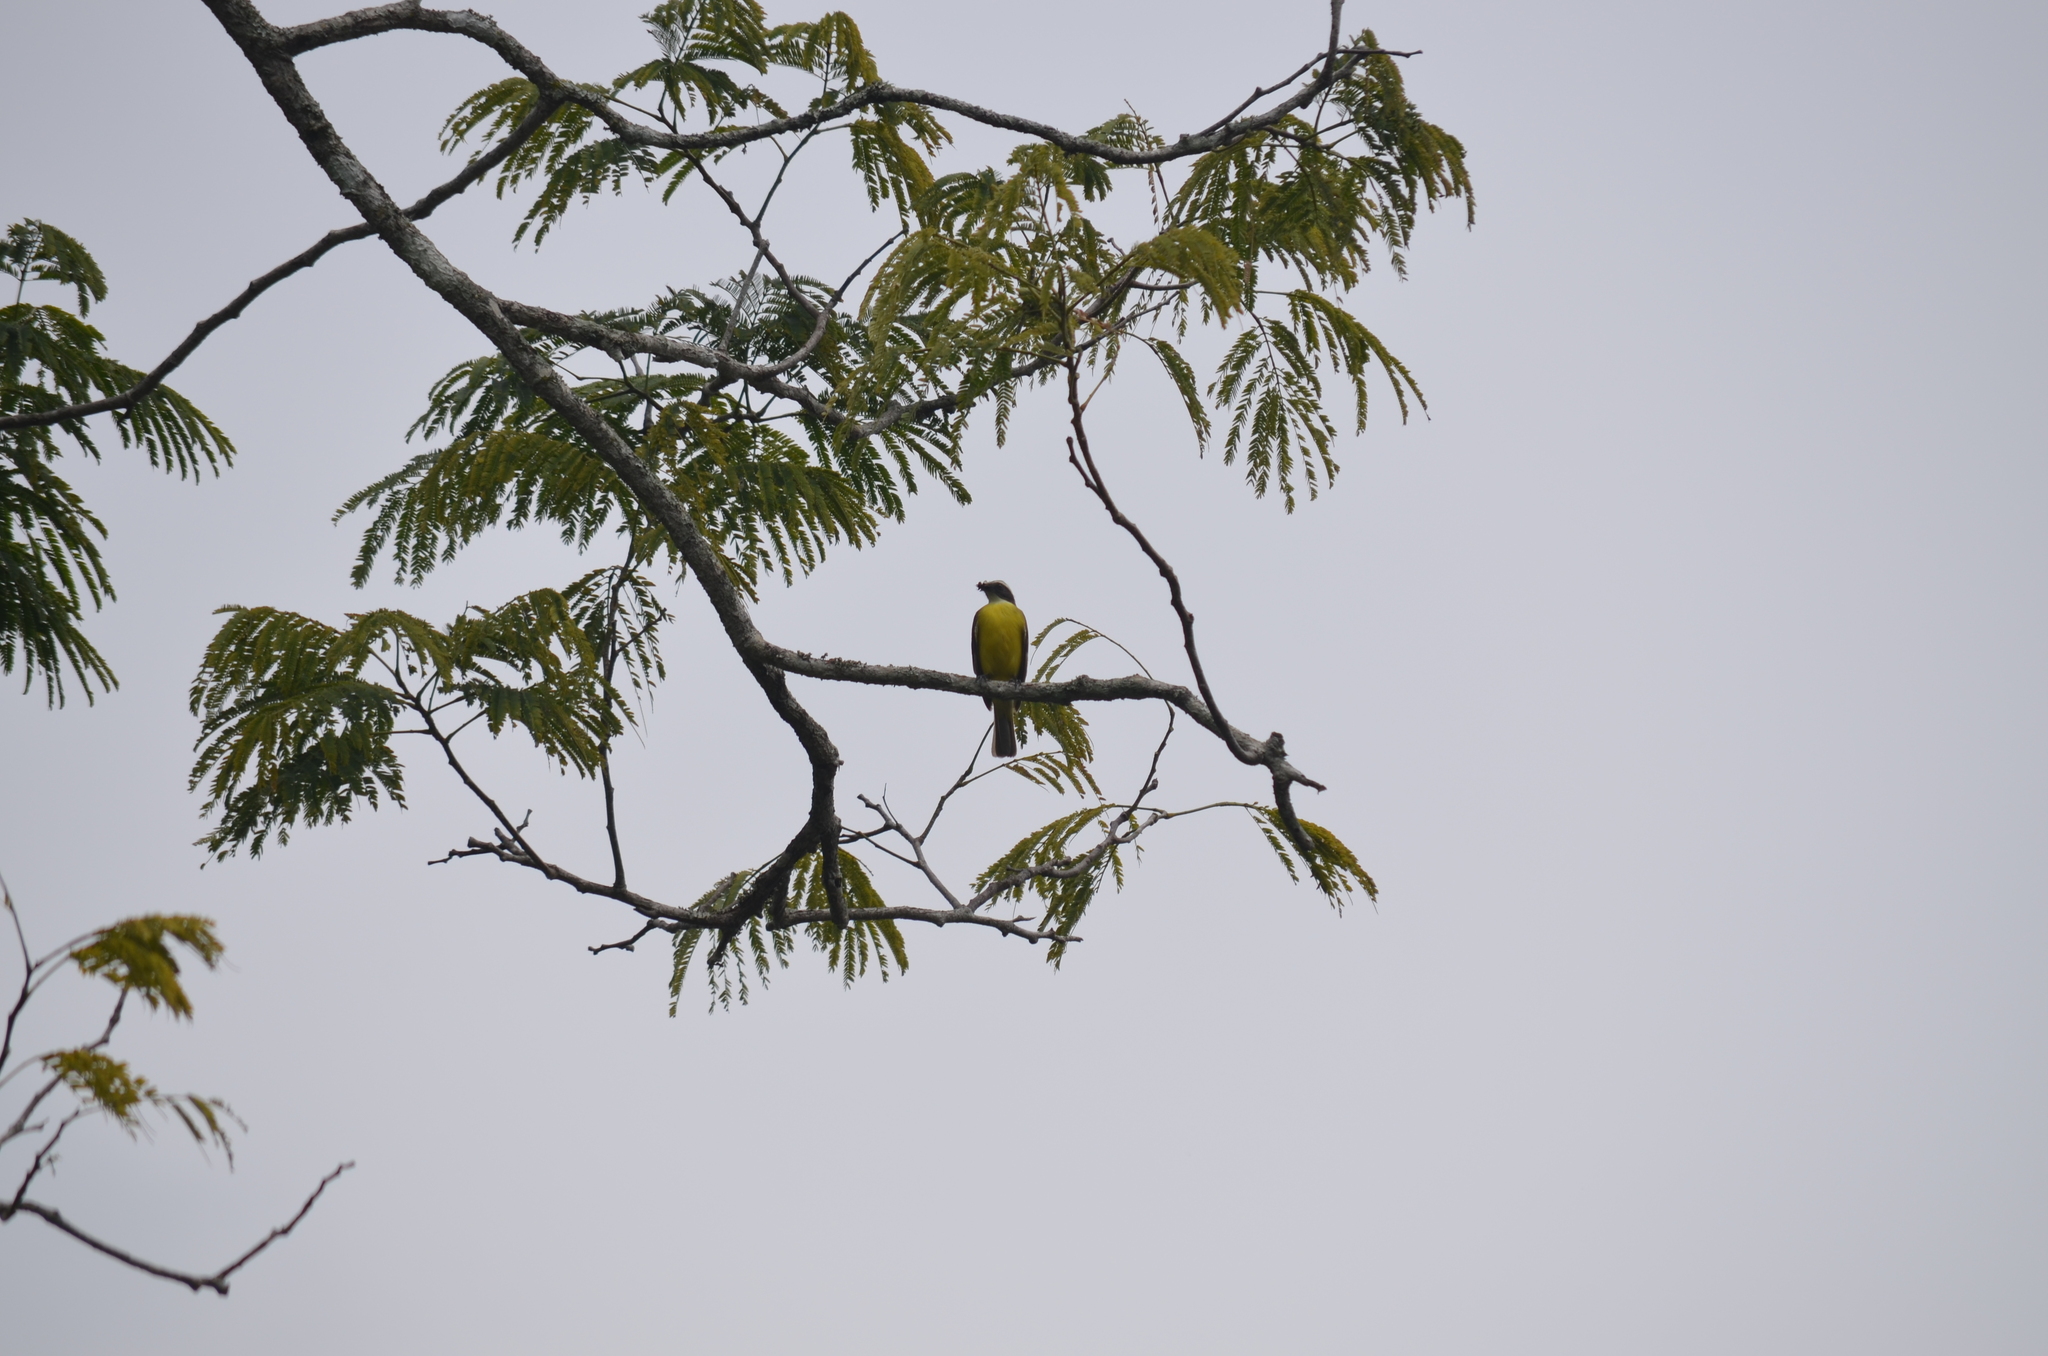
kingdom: Animalia
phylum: Chordata
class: Aves
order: Passeriformes
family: Tyrannidae
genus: Myiozetetes
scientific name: Myiozetetes similis
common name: Social flycatcher
